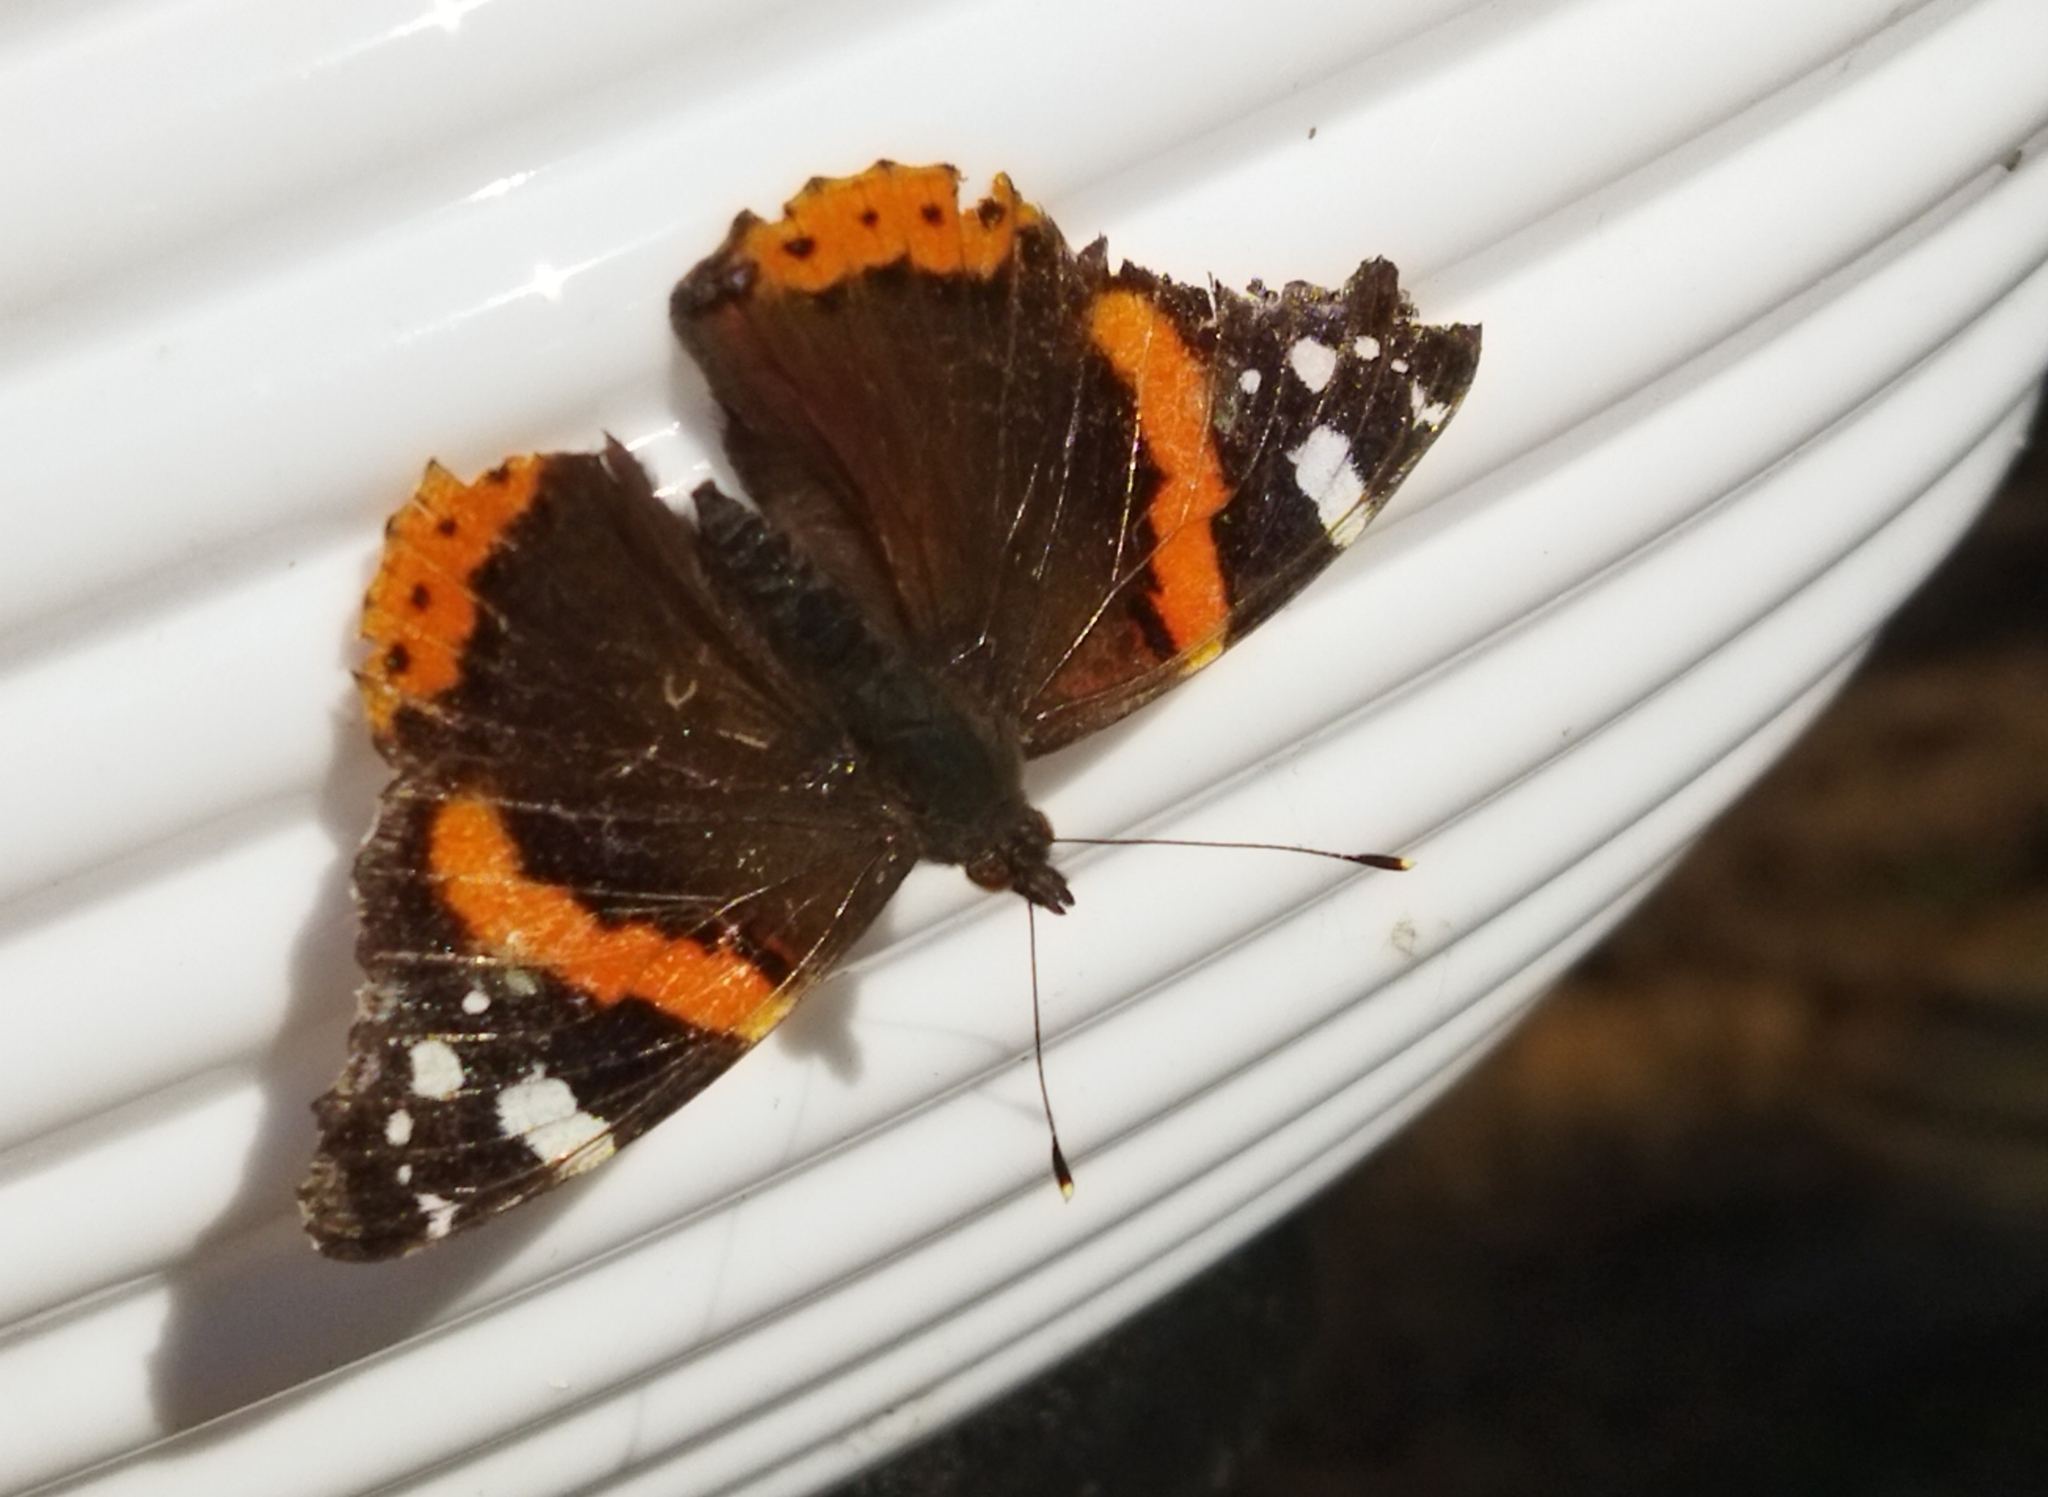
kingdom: Animalia
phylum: Arthropoda
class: Insecta
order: Lepidoptera
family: Nymphalidae
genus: Vanessa
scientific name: Vanessa atalanta
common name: Red admiral
